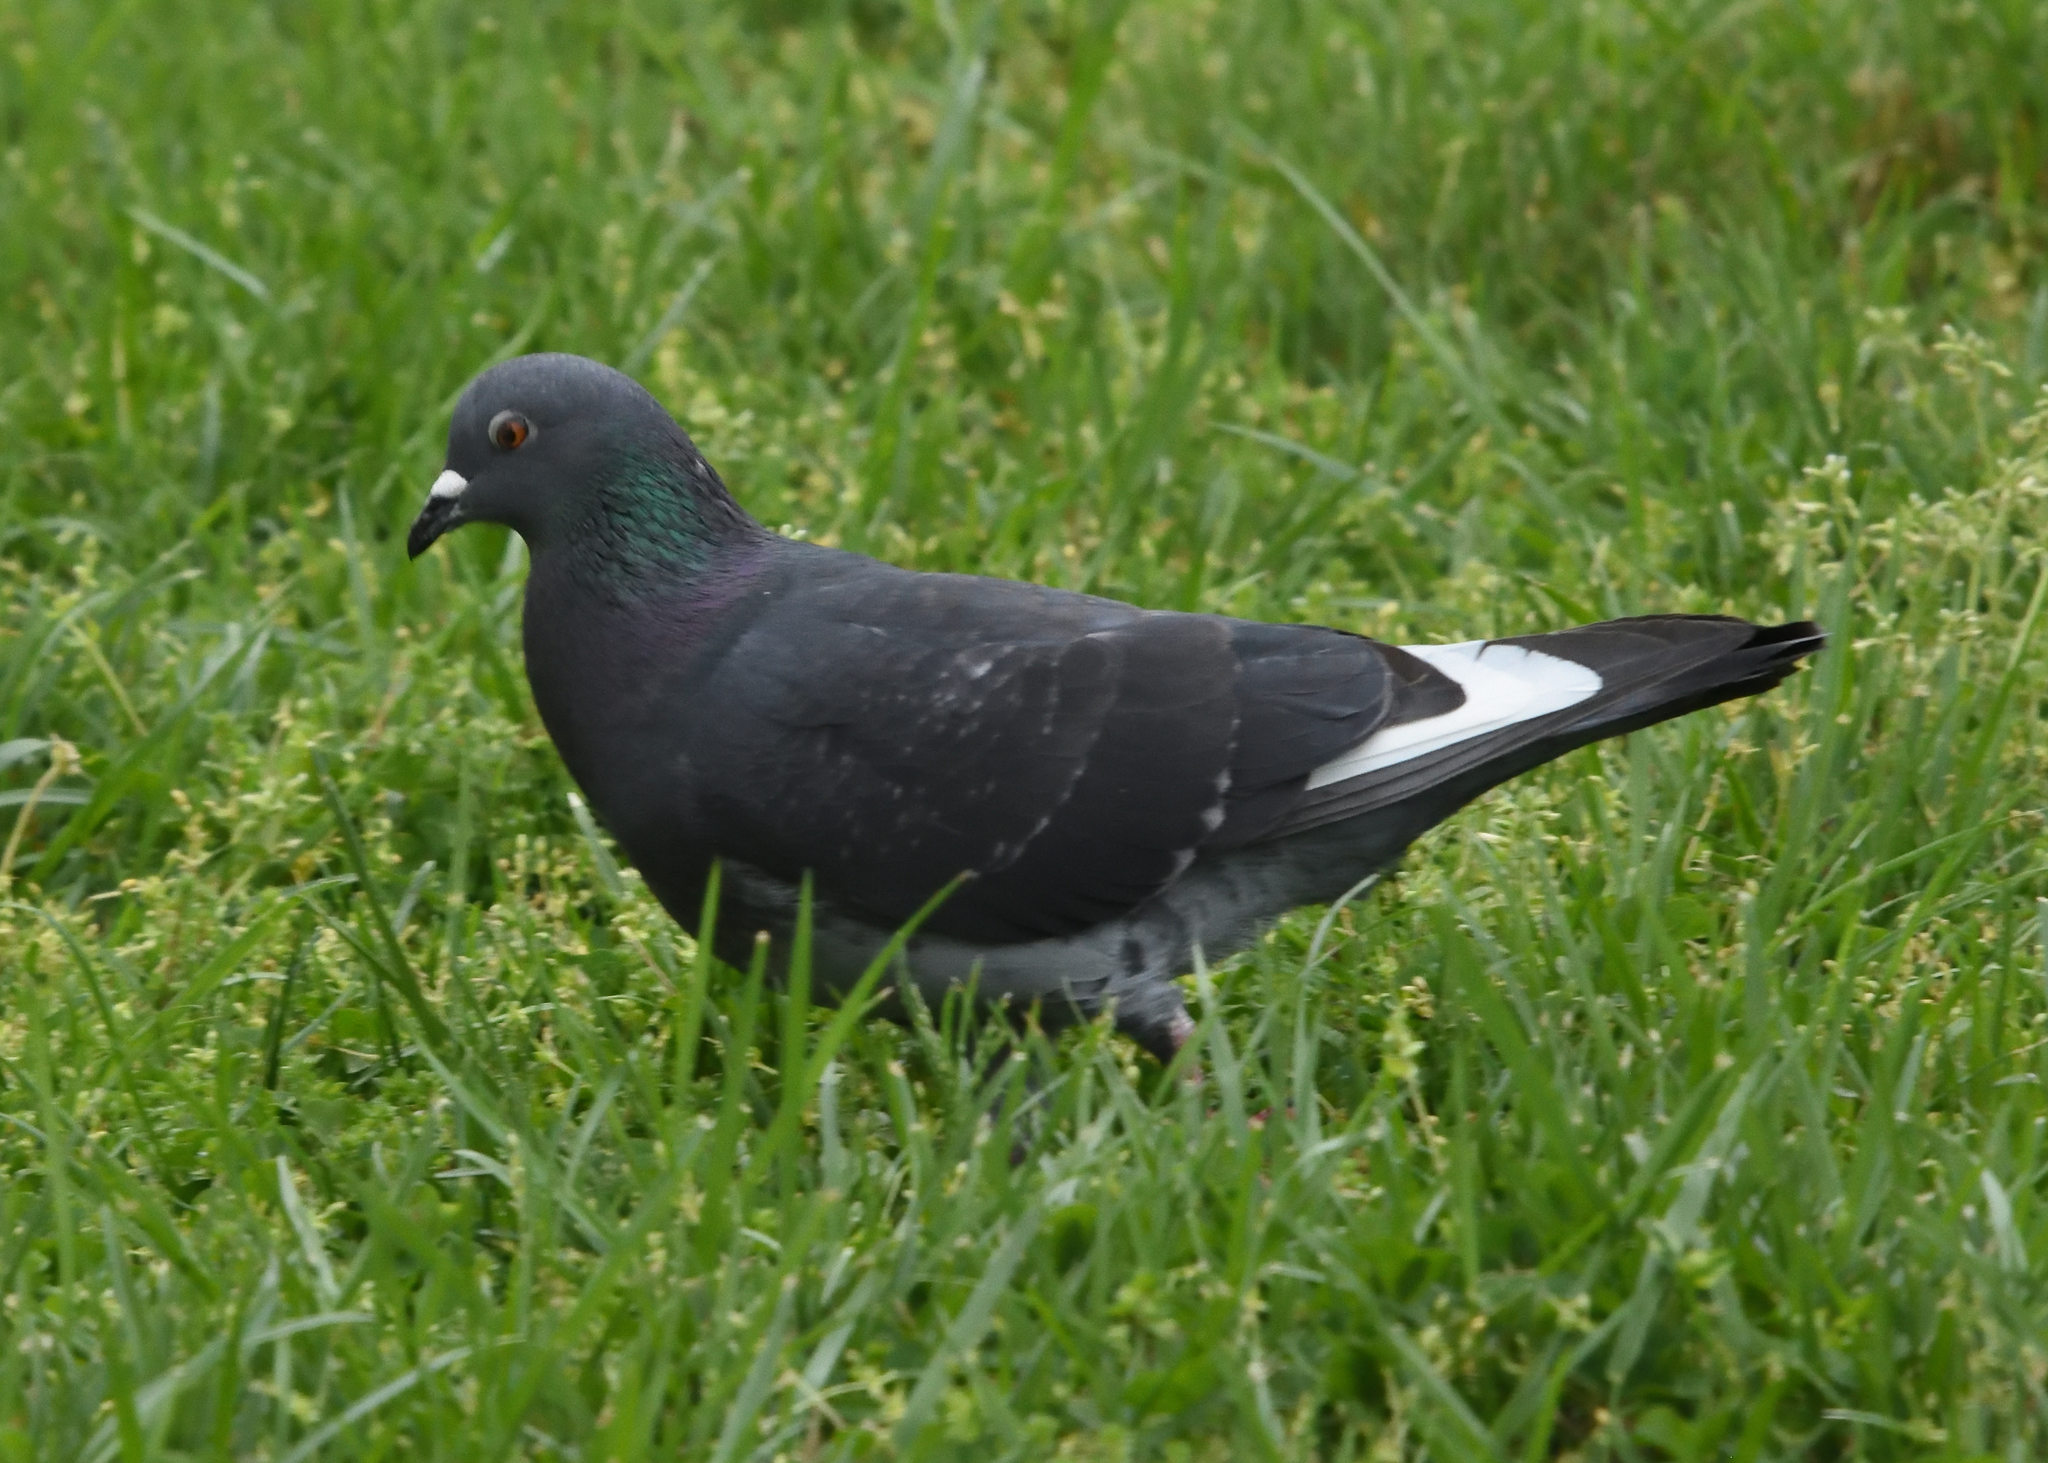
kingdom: Animalia
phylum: Chordata
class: Aves
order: Columbiformes
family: Columbidae
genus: Columba
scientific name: Columba livia
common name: Rock pigeon
